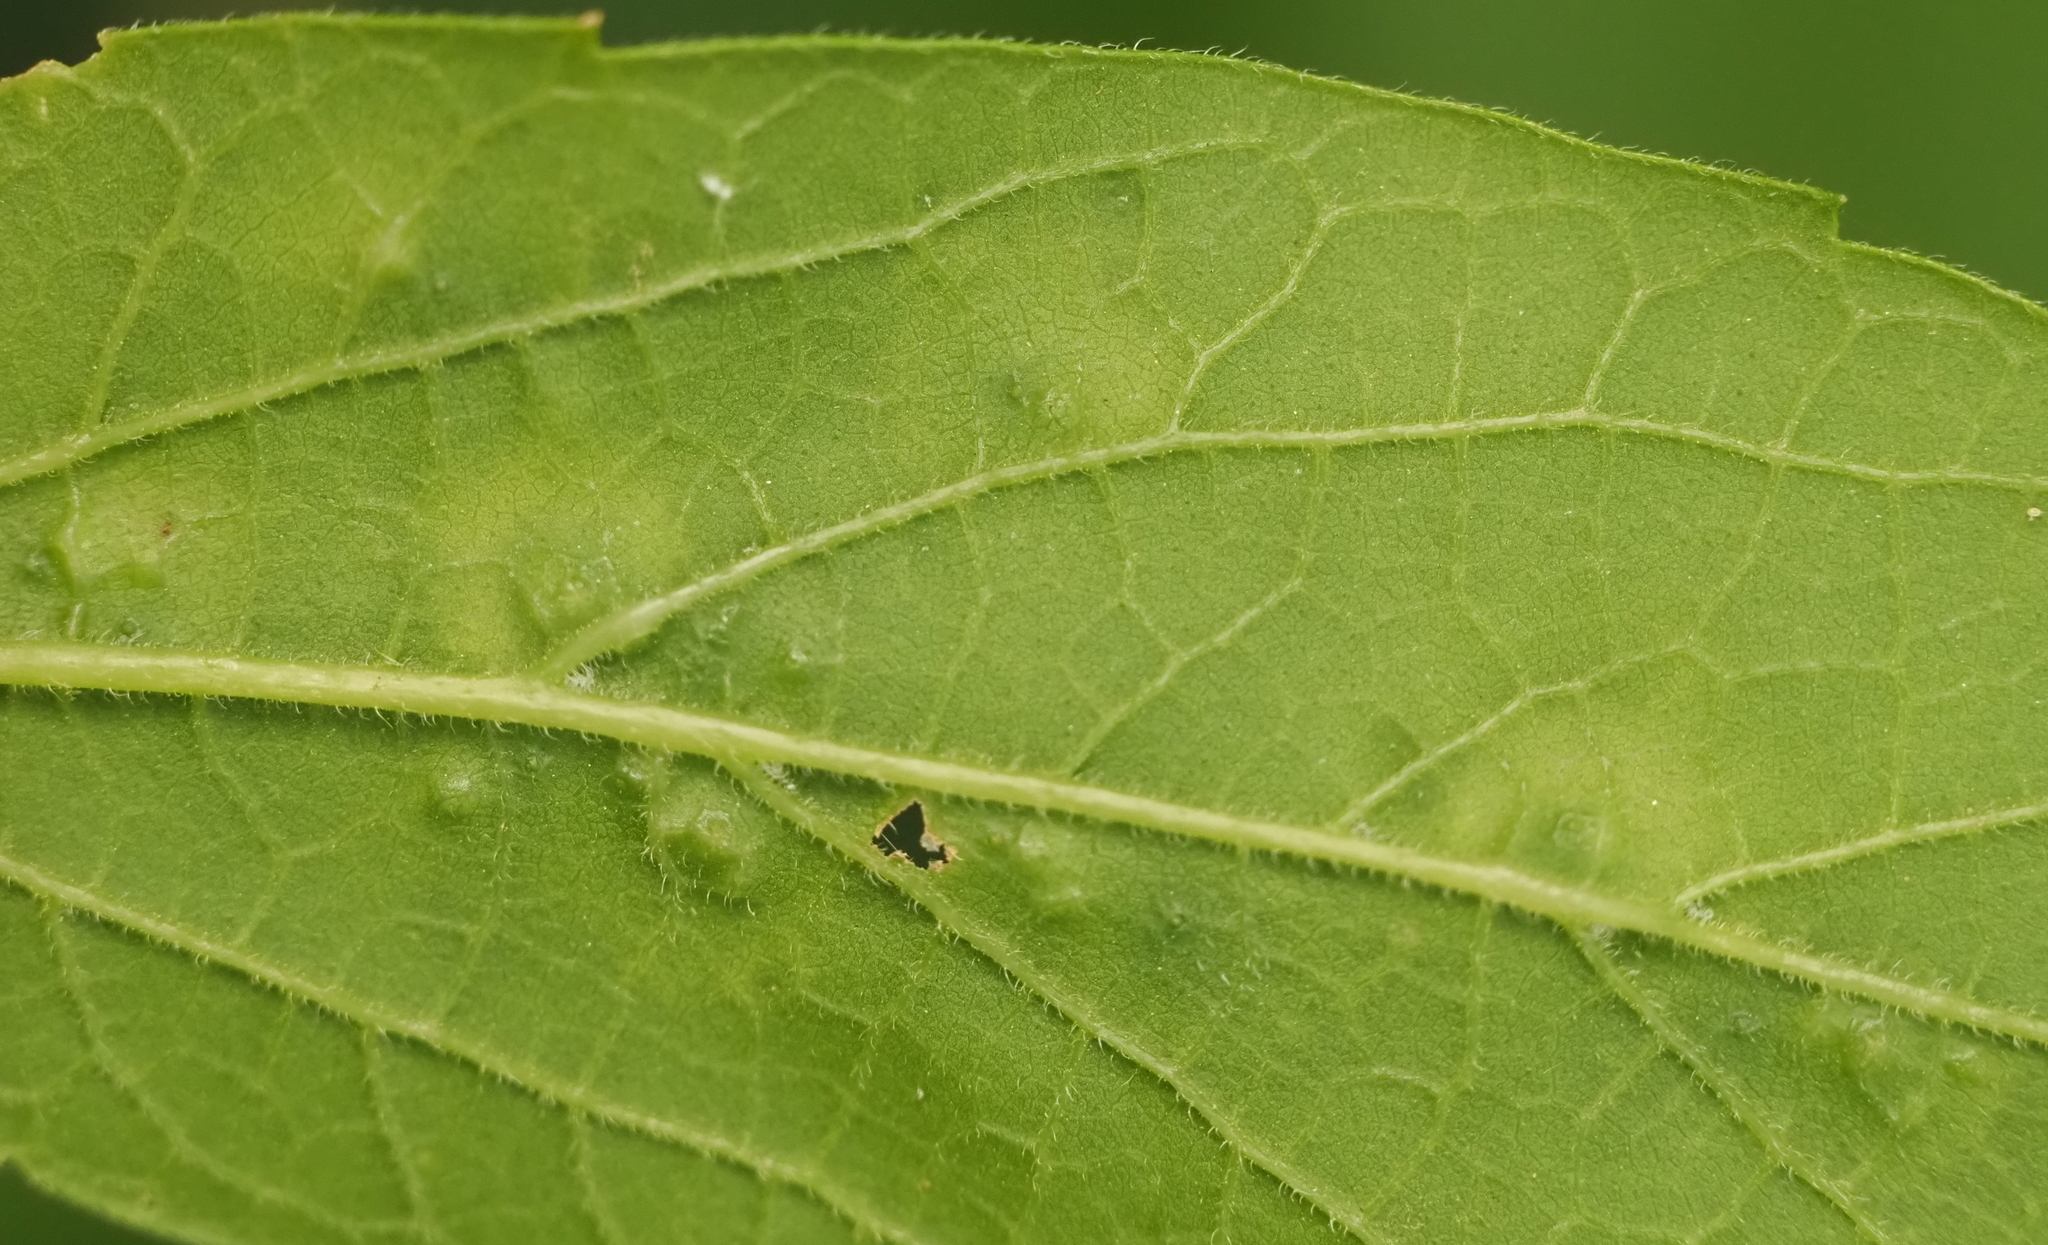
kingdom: Animalia
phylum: Arthropoda
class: Insecta
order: Hemiptera
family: Aphalaridae
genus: Pachypsylla
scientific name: Pachypsylla celtidisvesicula
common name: Hackberry blister gall psyllid
